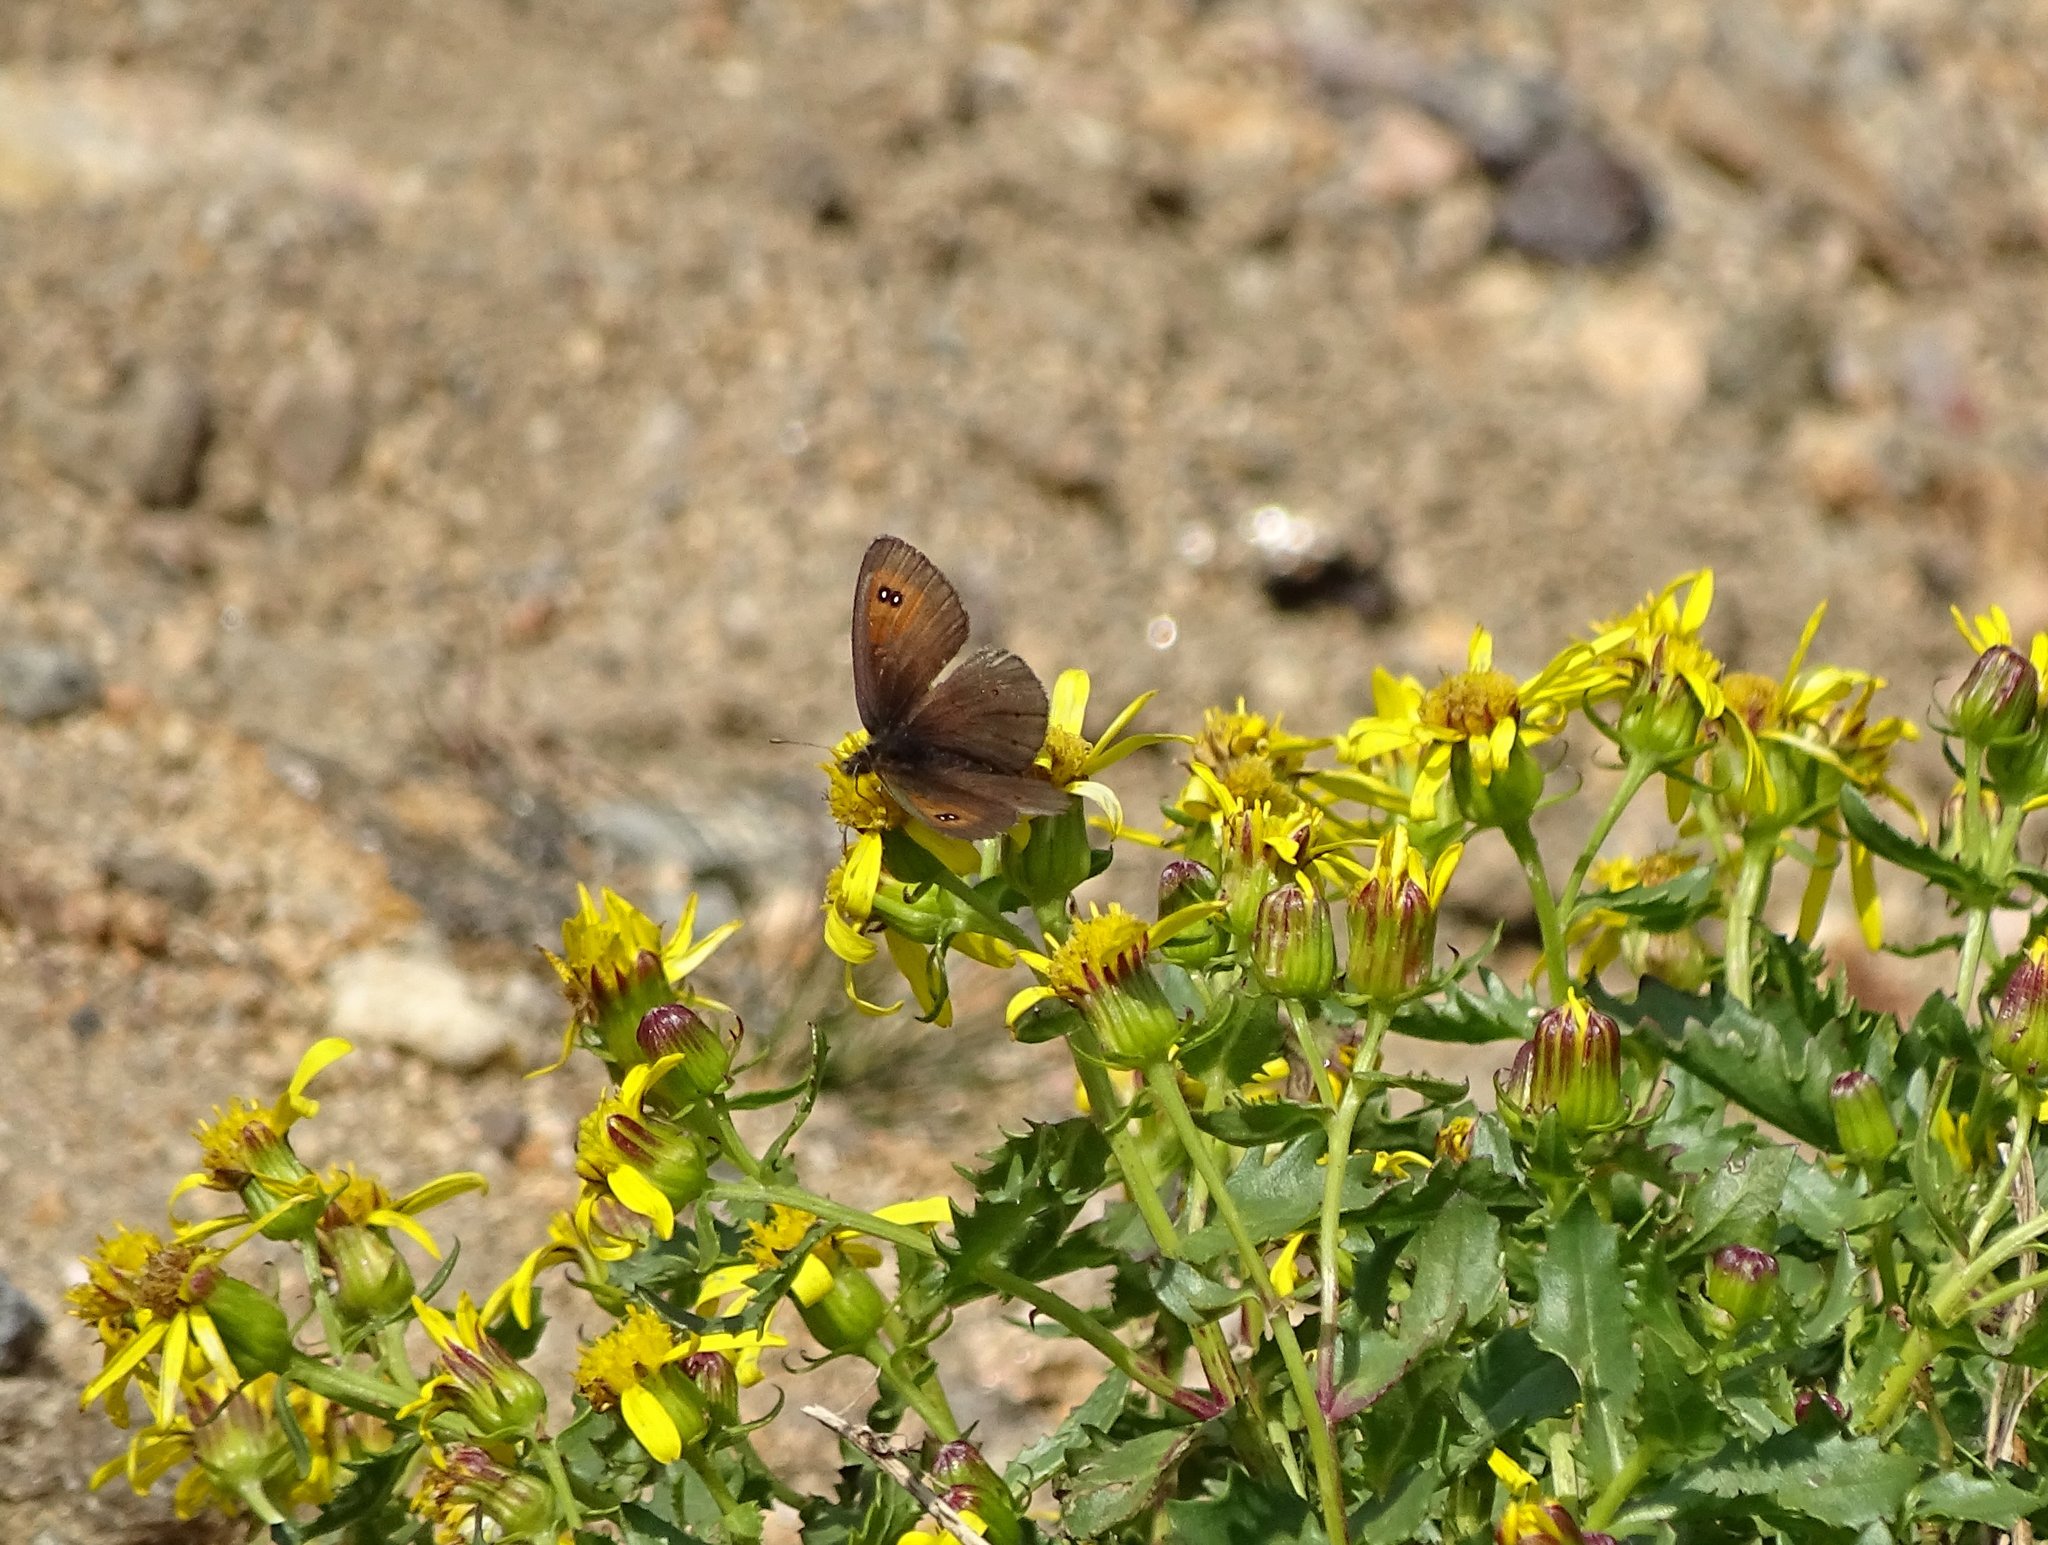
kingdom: Animalia
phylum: Arthropoda
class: Insecta
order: Lepidoptera
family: Nymphalidae
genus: Erebia
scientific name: Erebia tyndarus
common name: Swiss brassy ringlet
